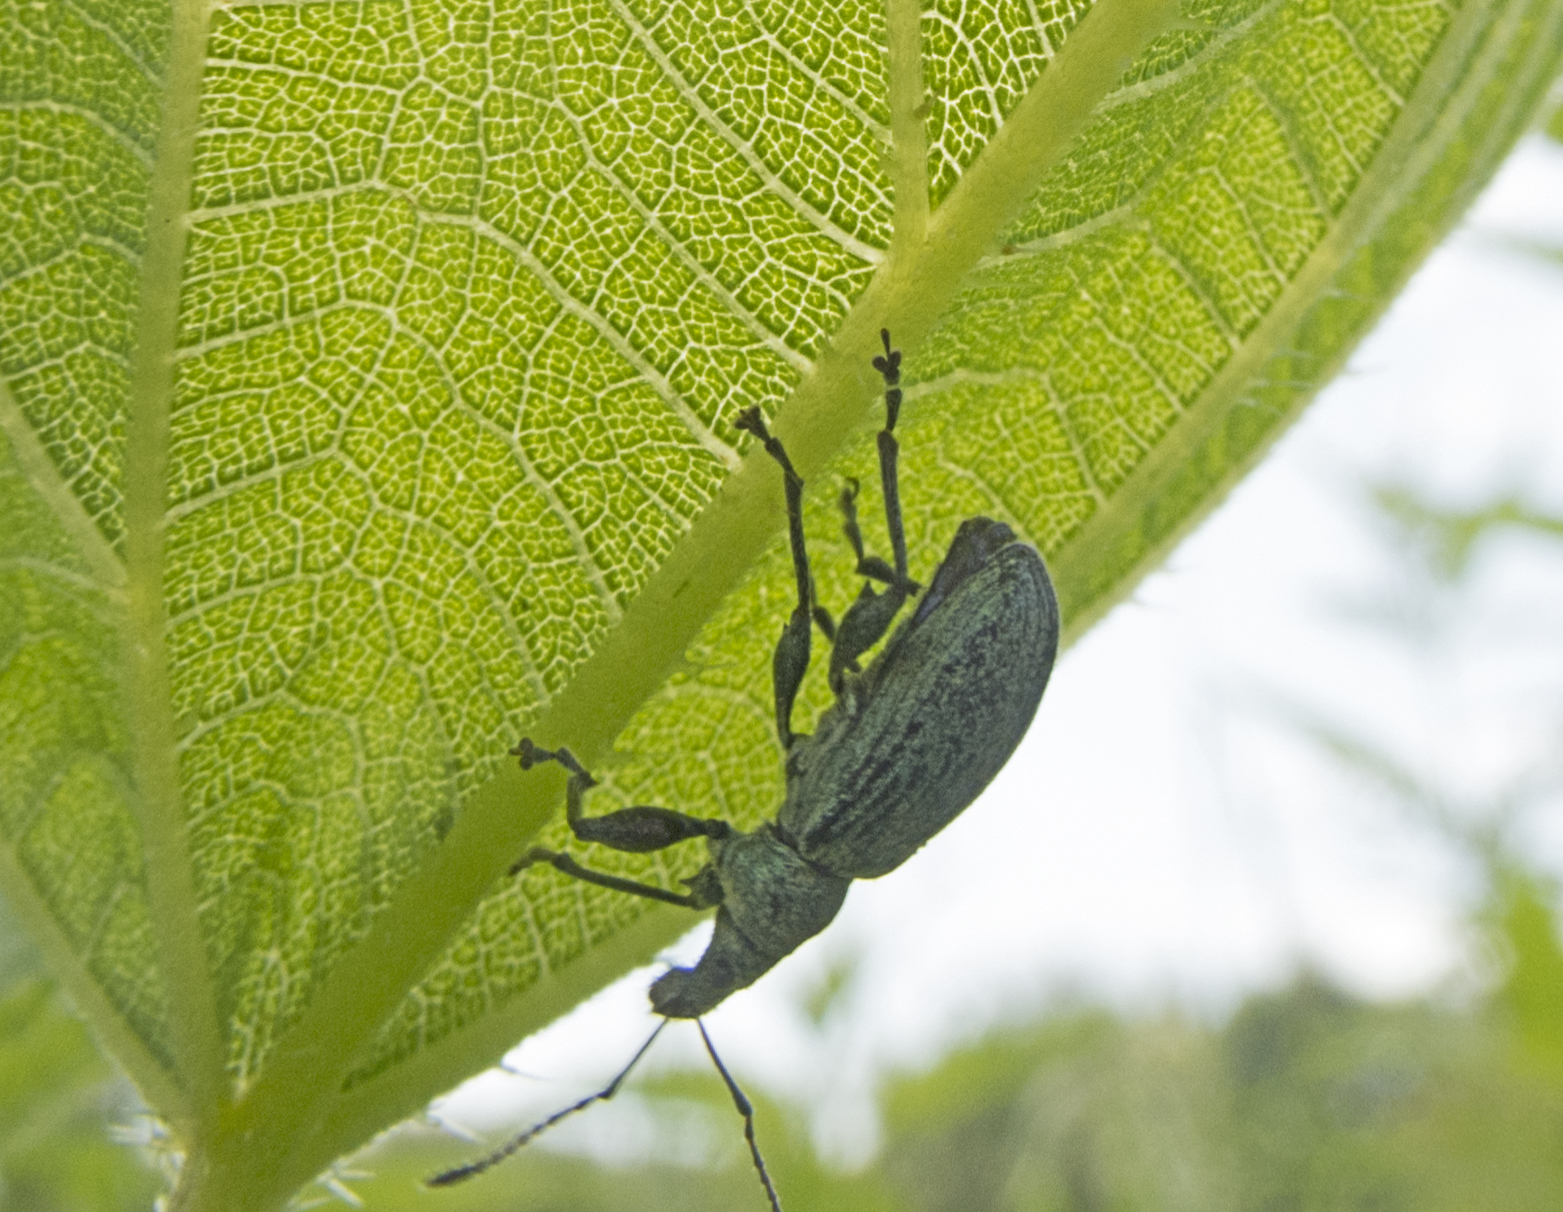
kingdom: Animalia
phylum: Arthropoda
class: Insecta
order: Coleoptera
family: Curculionidae
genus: Phyllobius
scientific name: Phyllobius pomaceus
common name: Green nettle weevil
